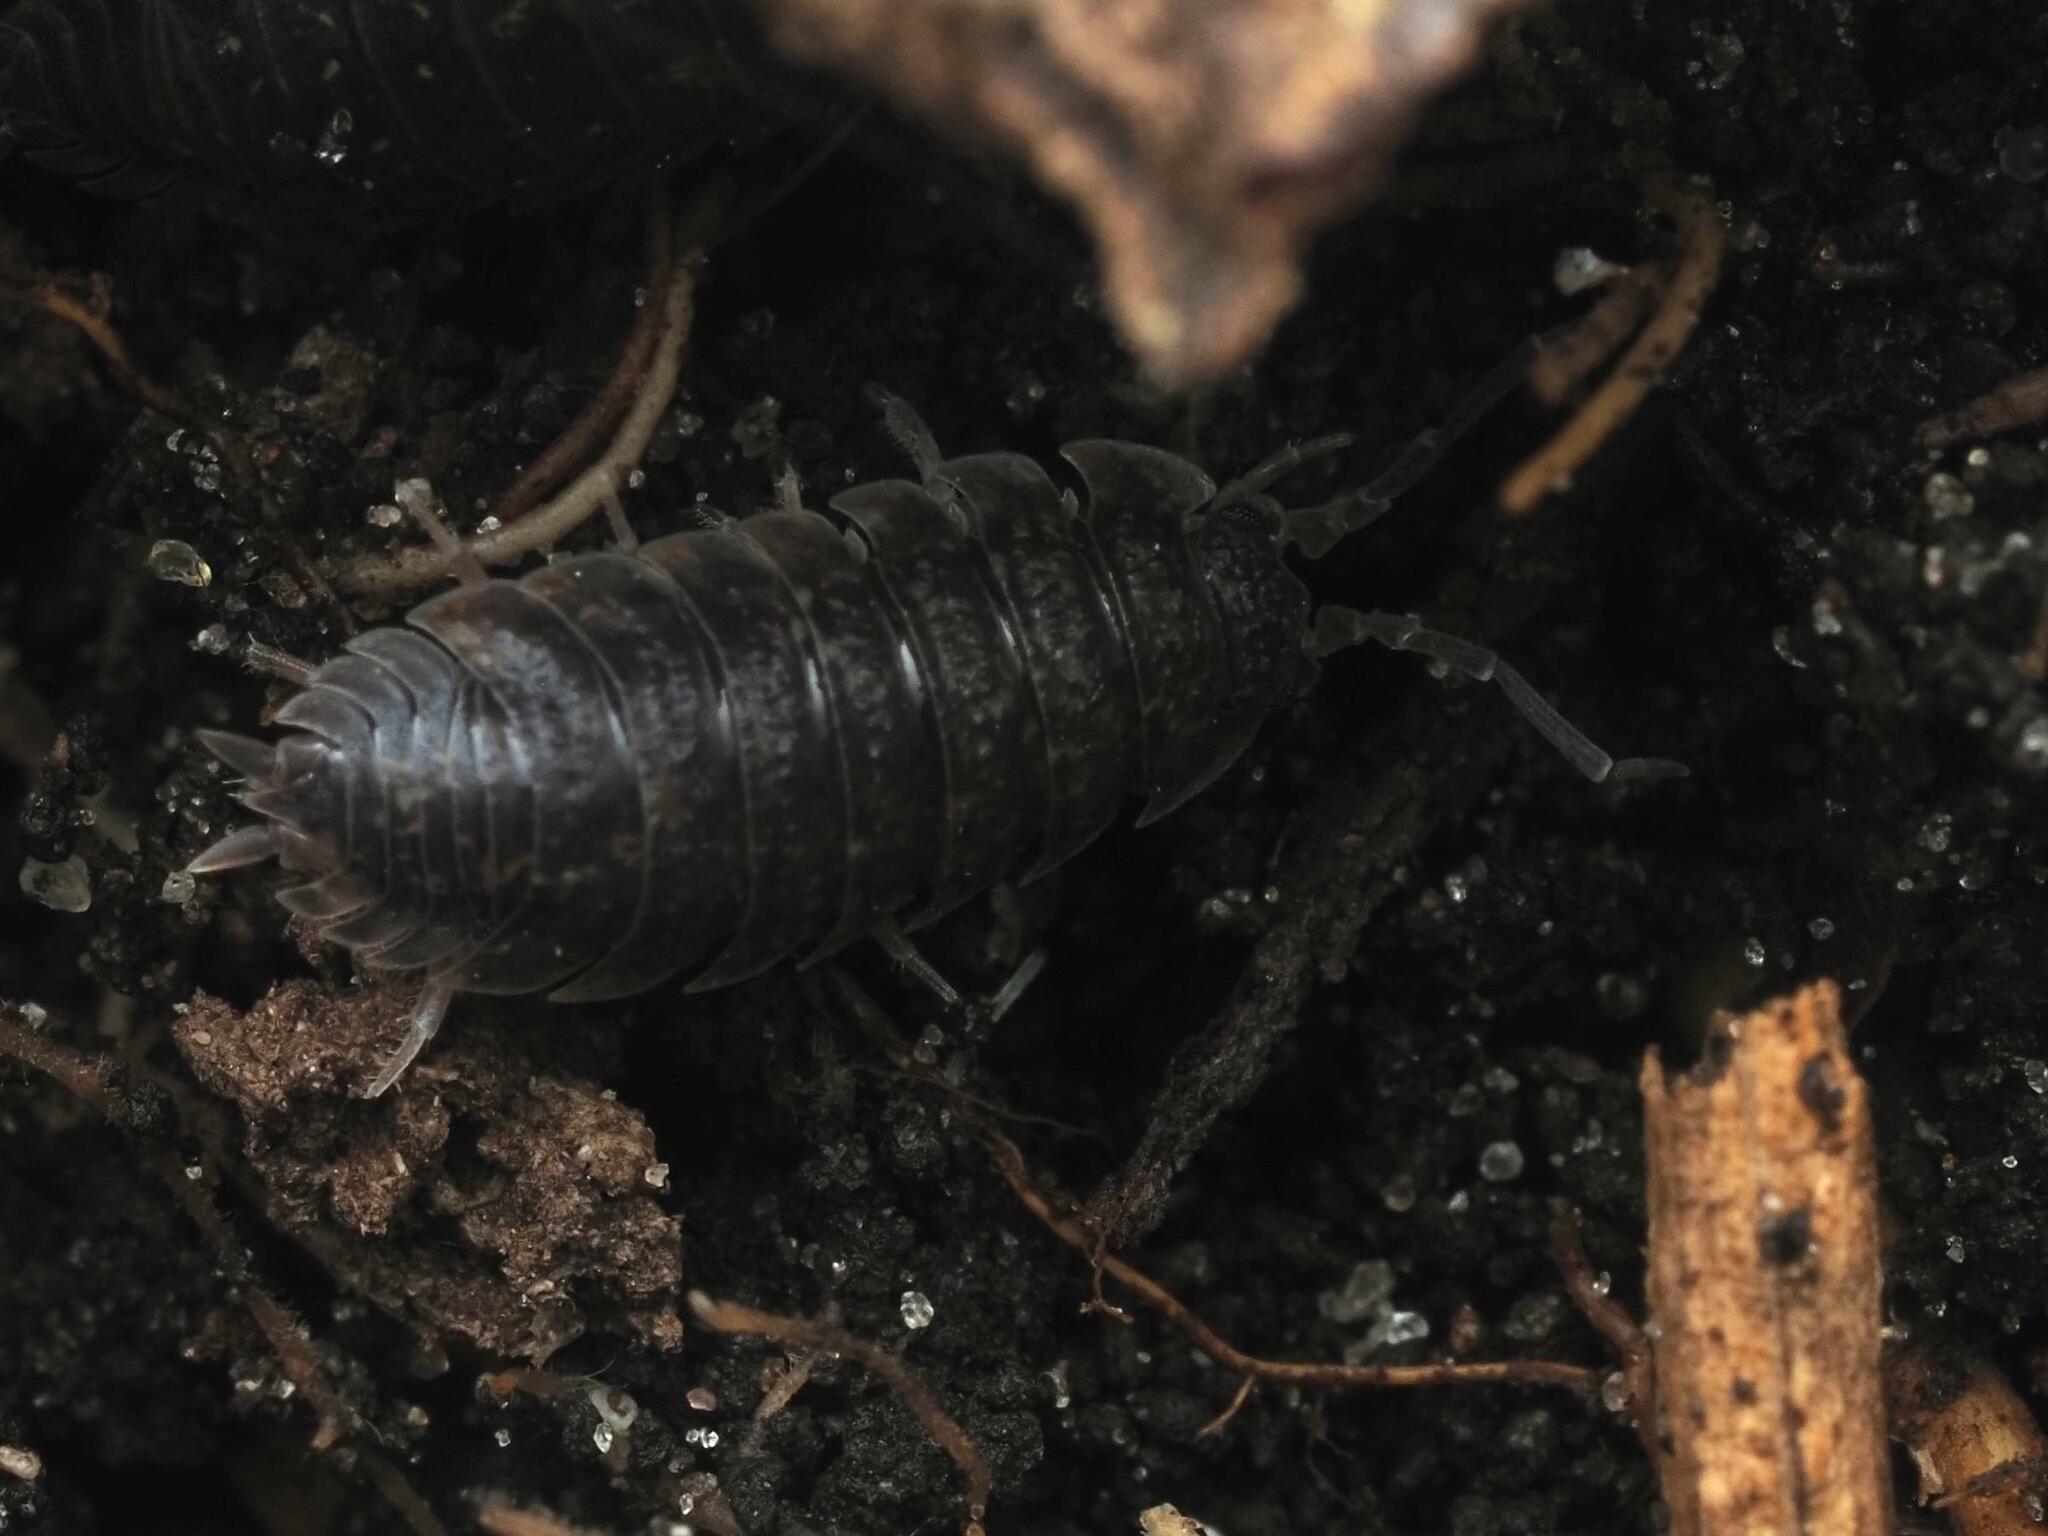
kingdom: Animalia
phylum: Arthropoda
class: Malacostraca
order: Isopoda
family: Porcellionidae
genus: Porcellio
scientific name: Porcellio scaber
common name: Common rough woodlouse
